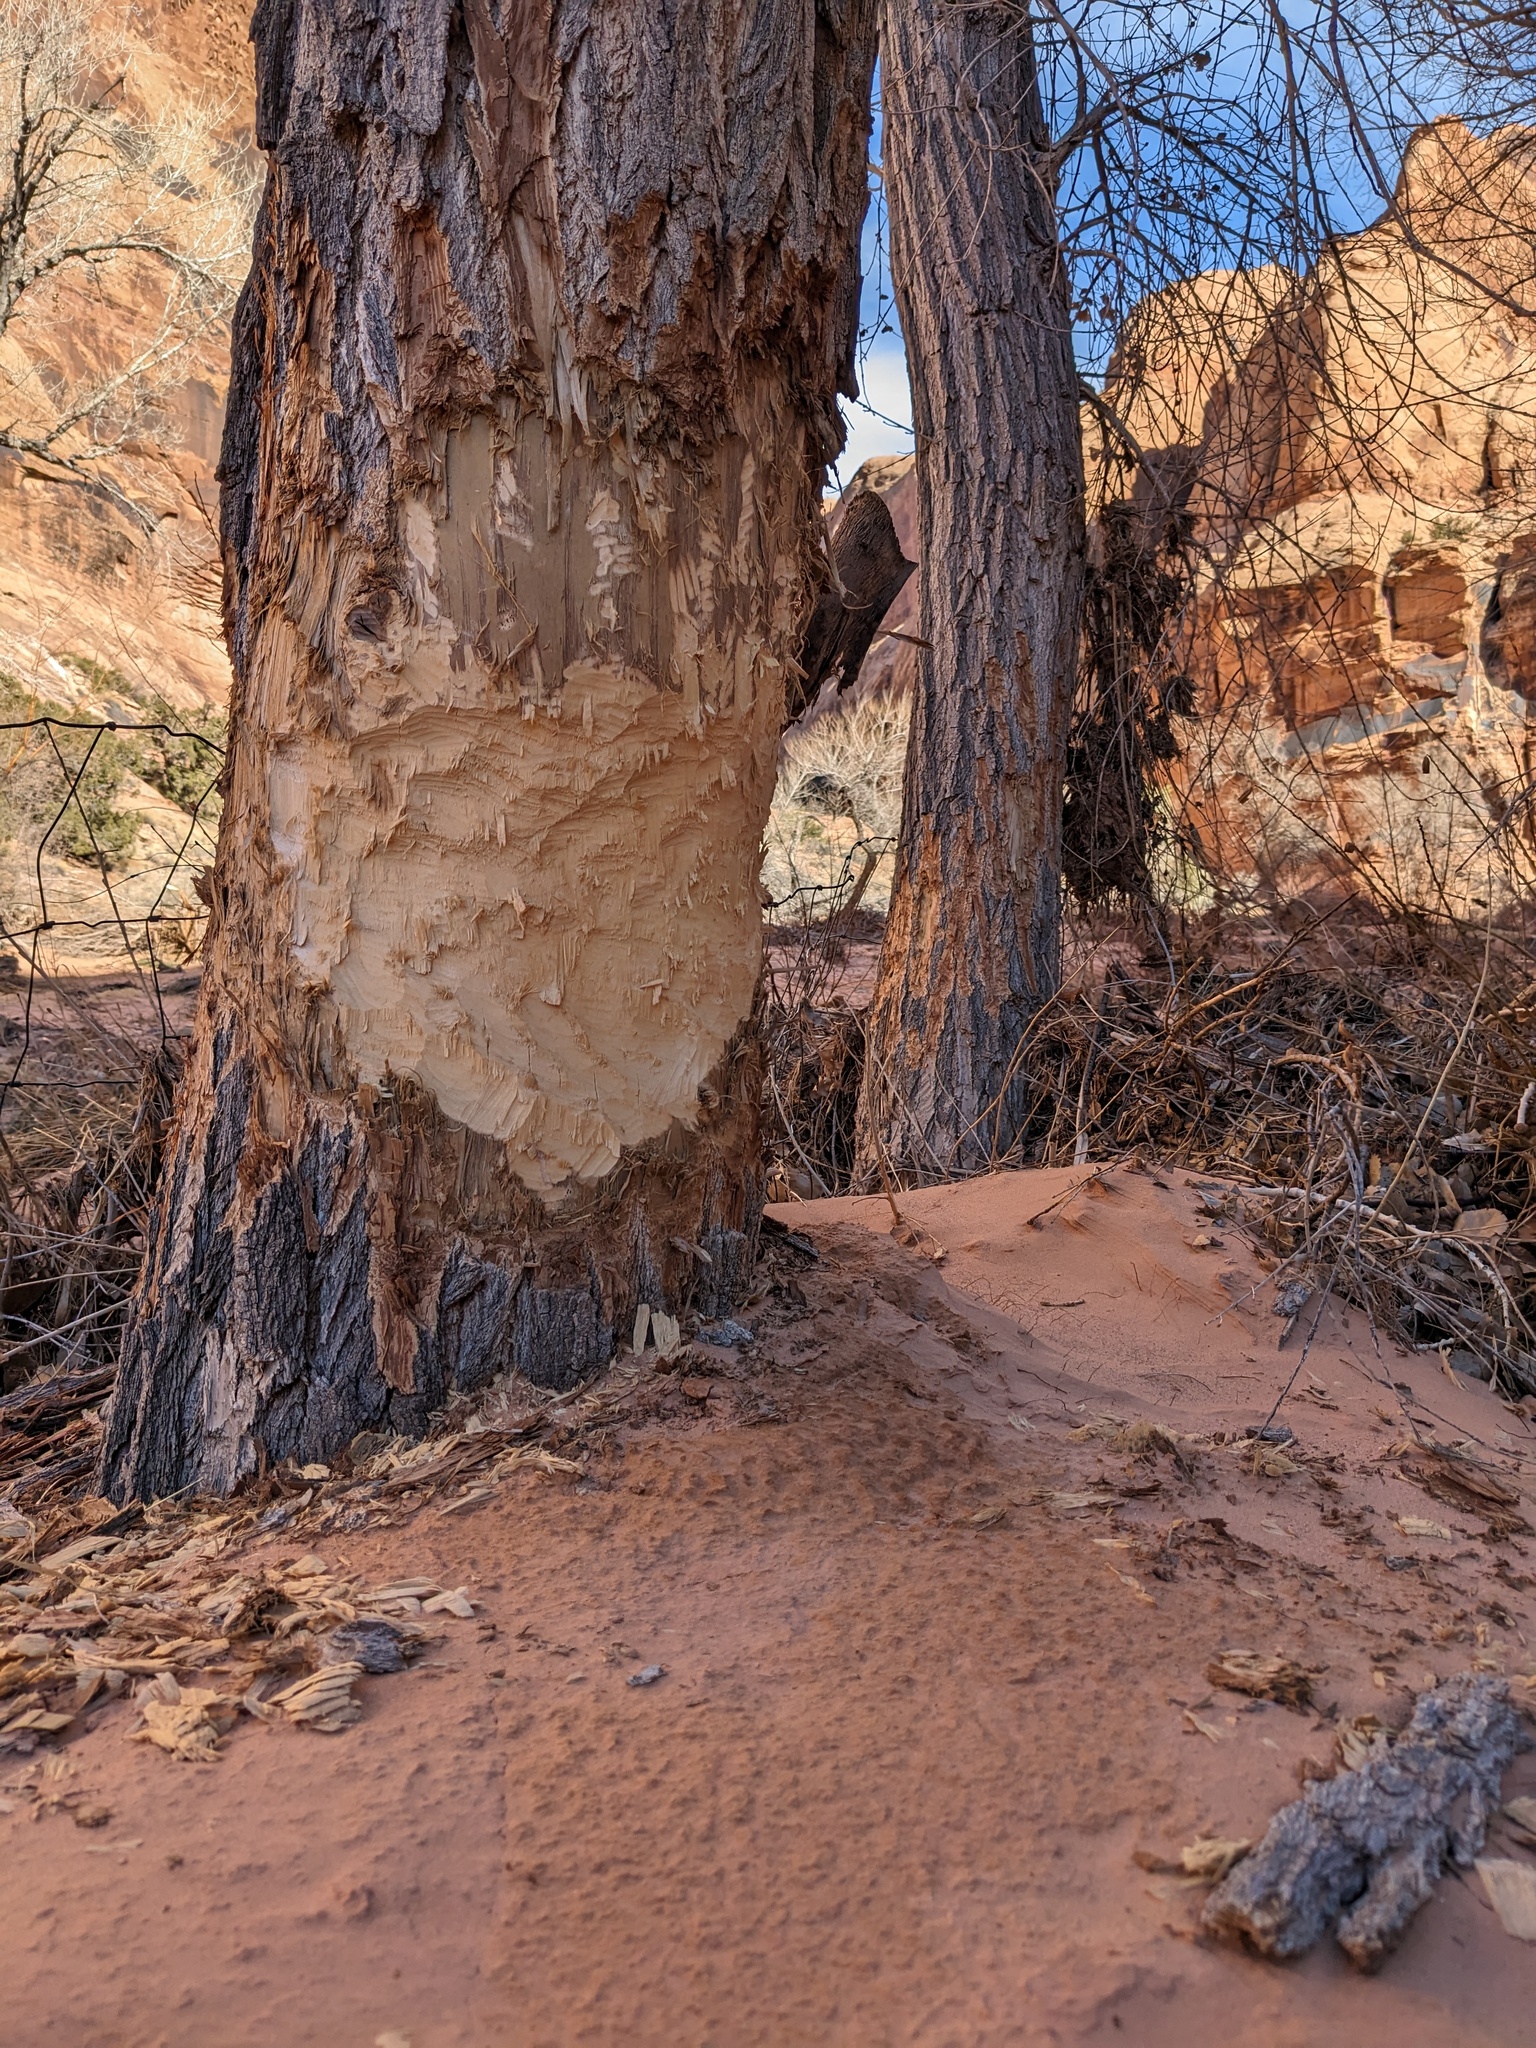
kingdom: Animalia
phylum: Chordata
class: Mammalia
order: Rodentia
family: Castoridae
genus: Castor
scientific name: Castor canadensis
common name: American beaver
